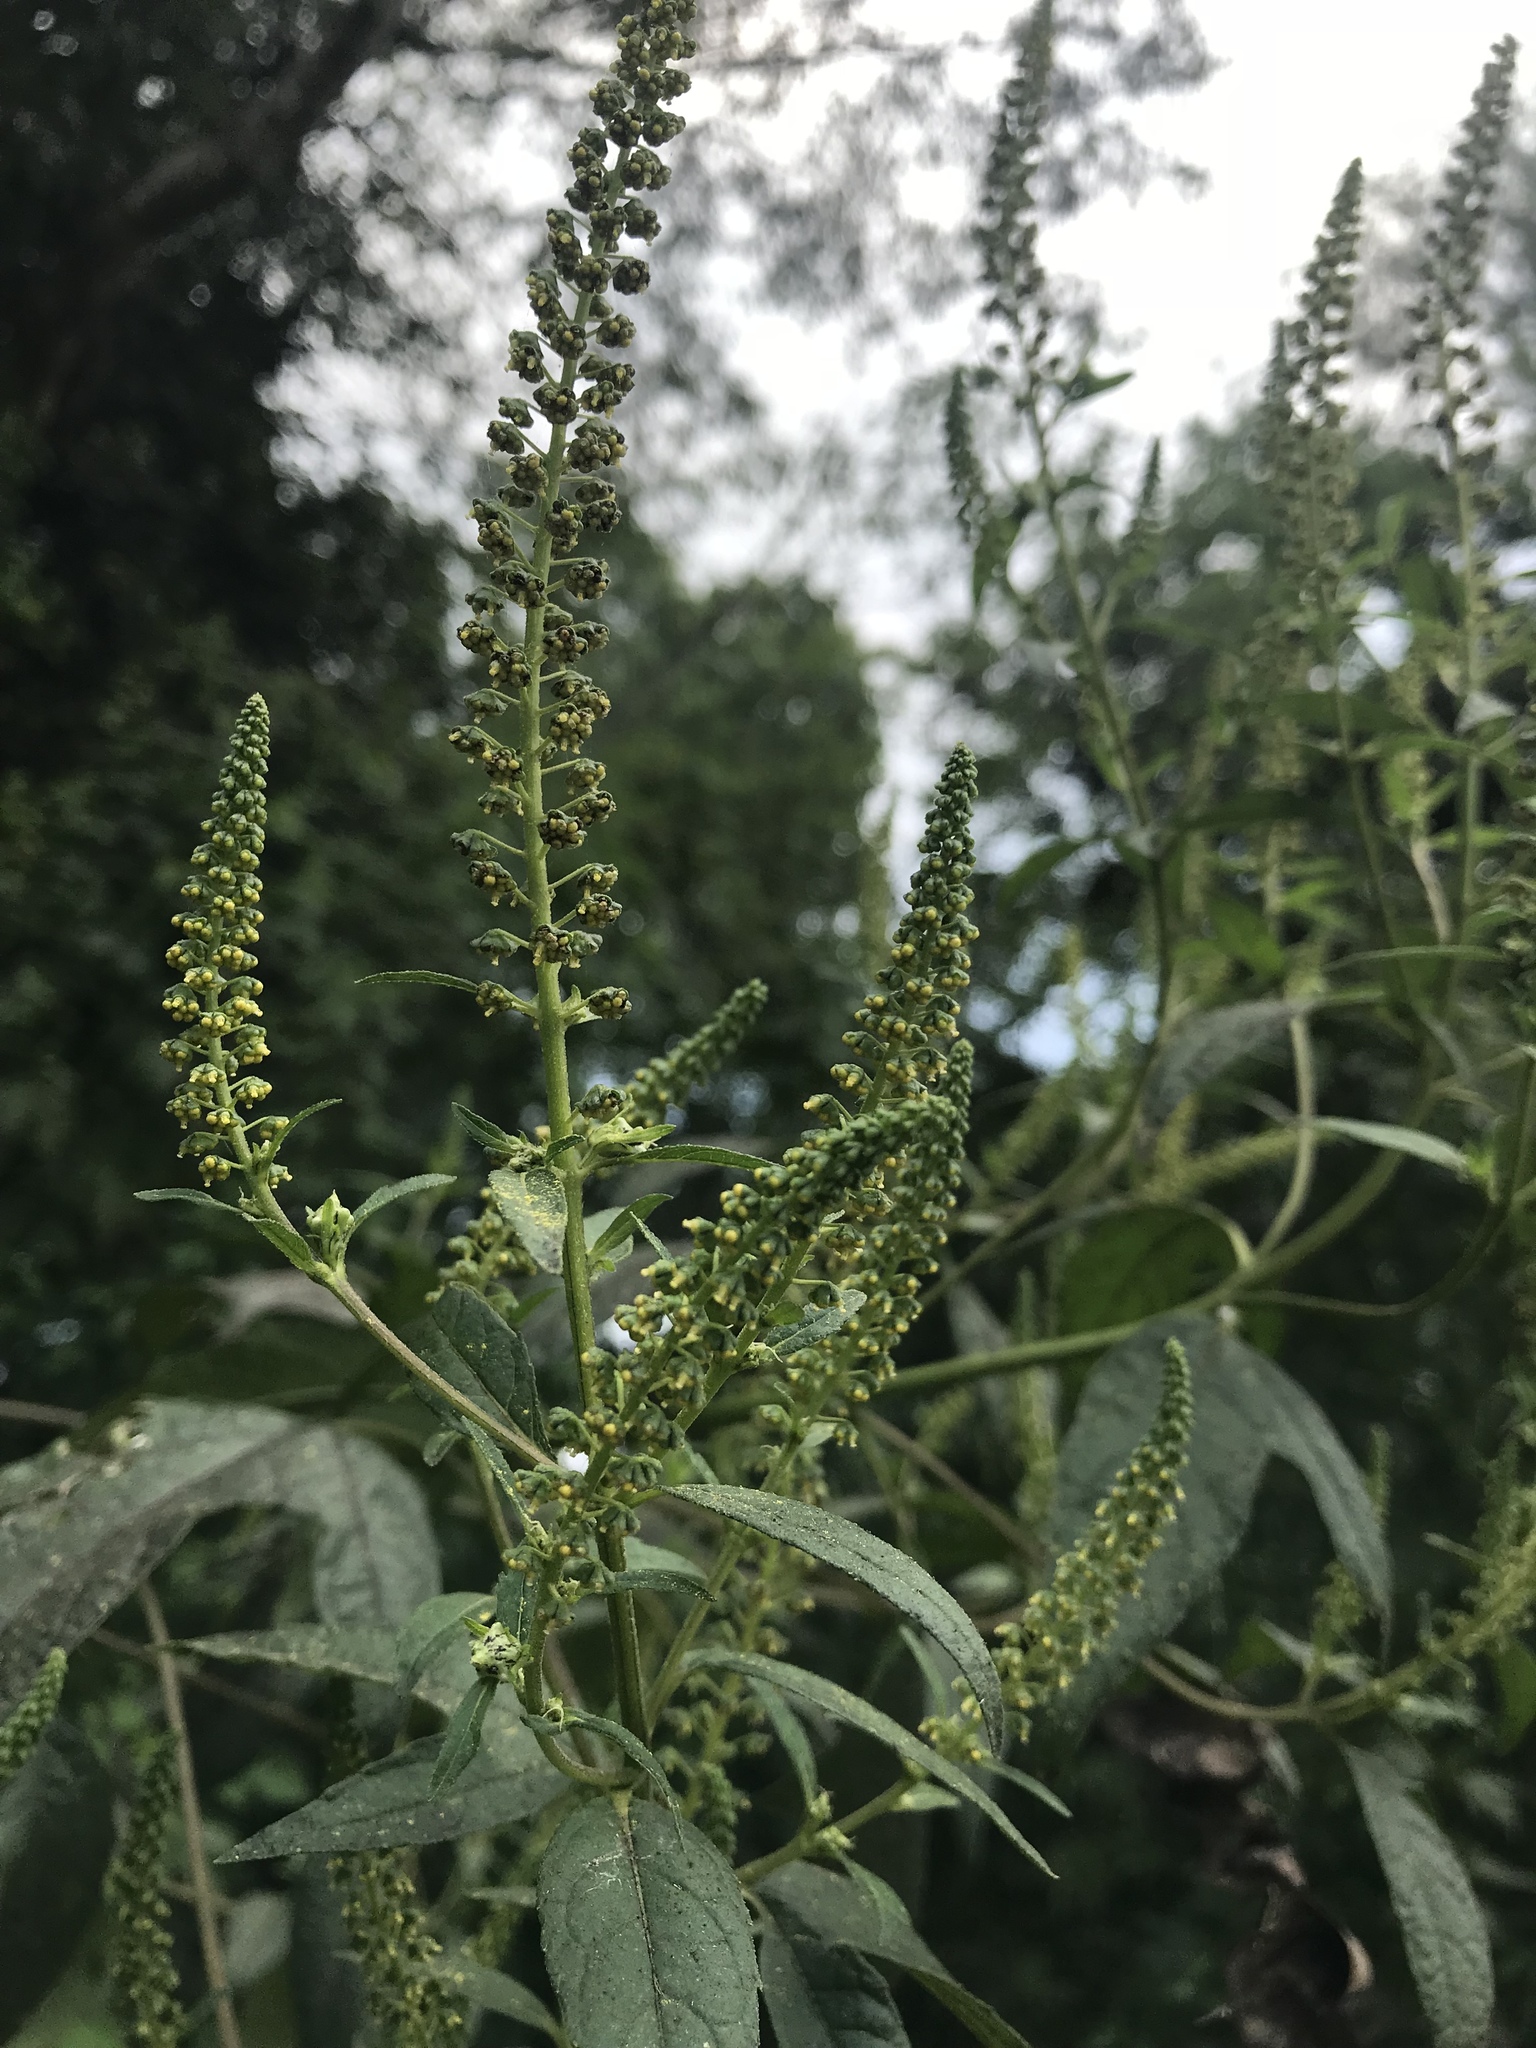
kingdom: Plantae
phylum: Tracheophyta
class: Magnoliopsida
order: Asterales
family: Asteraceae
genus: Ambrosia
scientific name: Ambrosia trifida
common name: Giant ragweed
